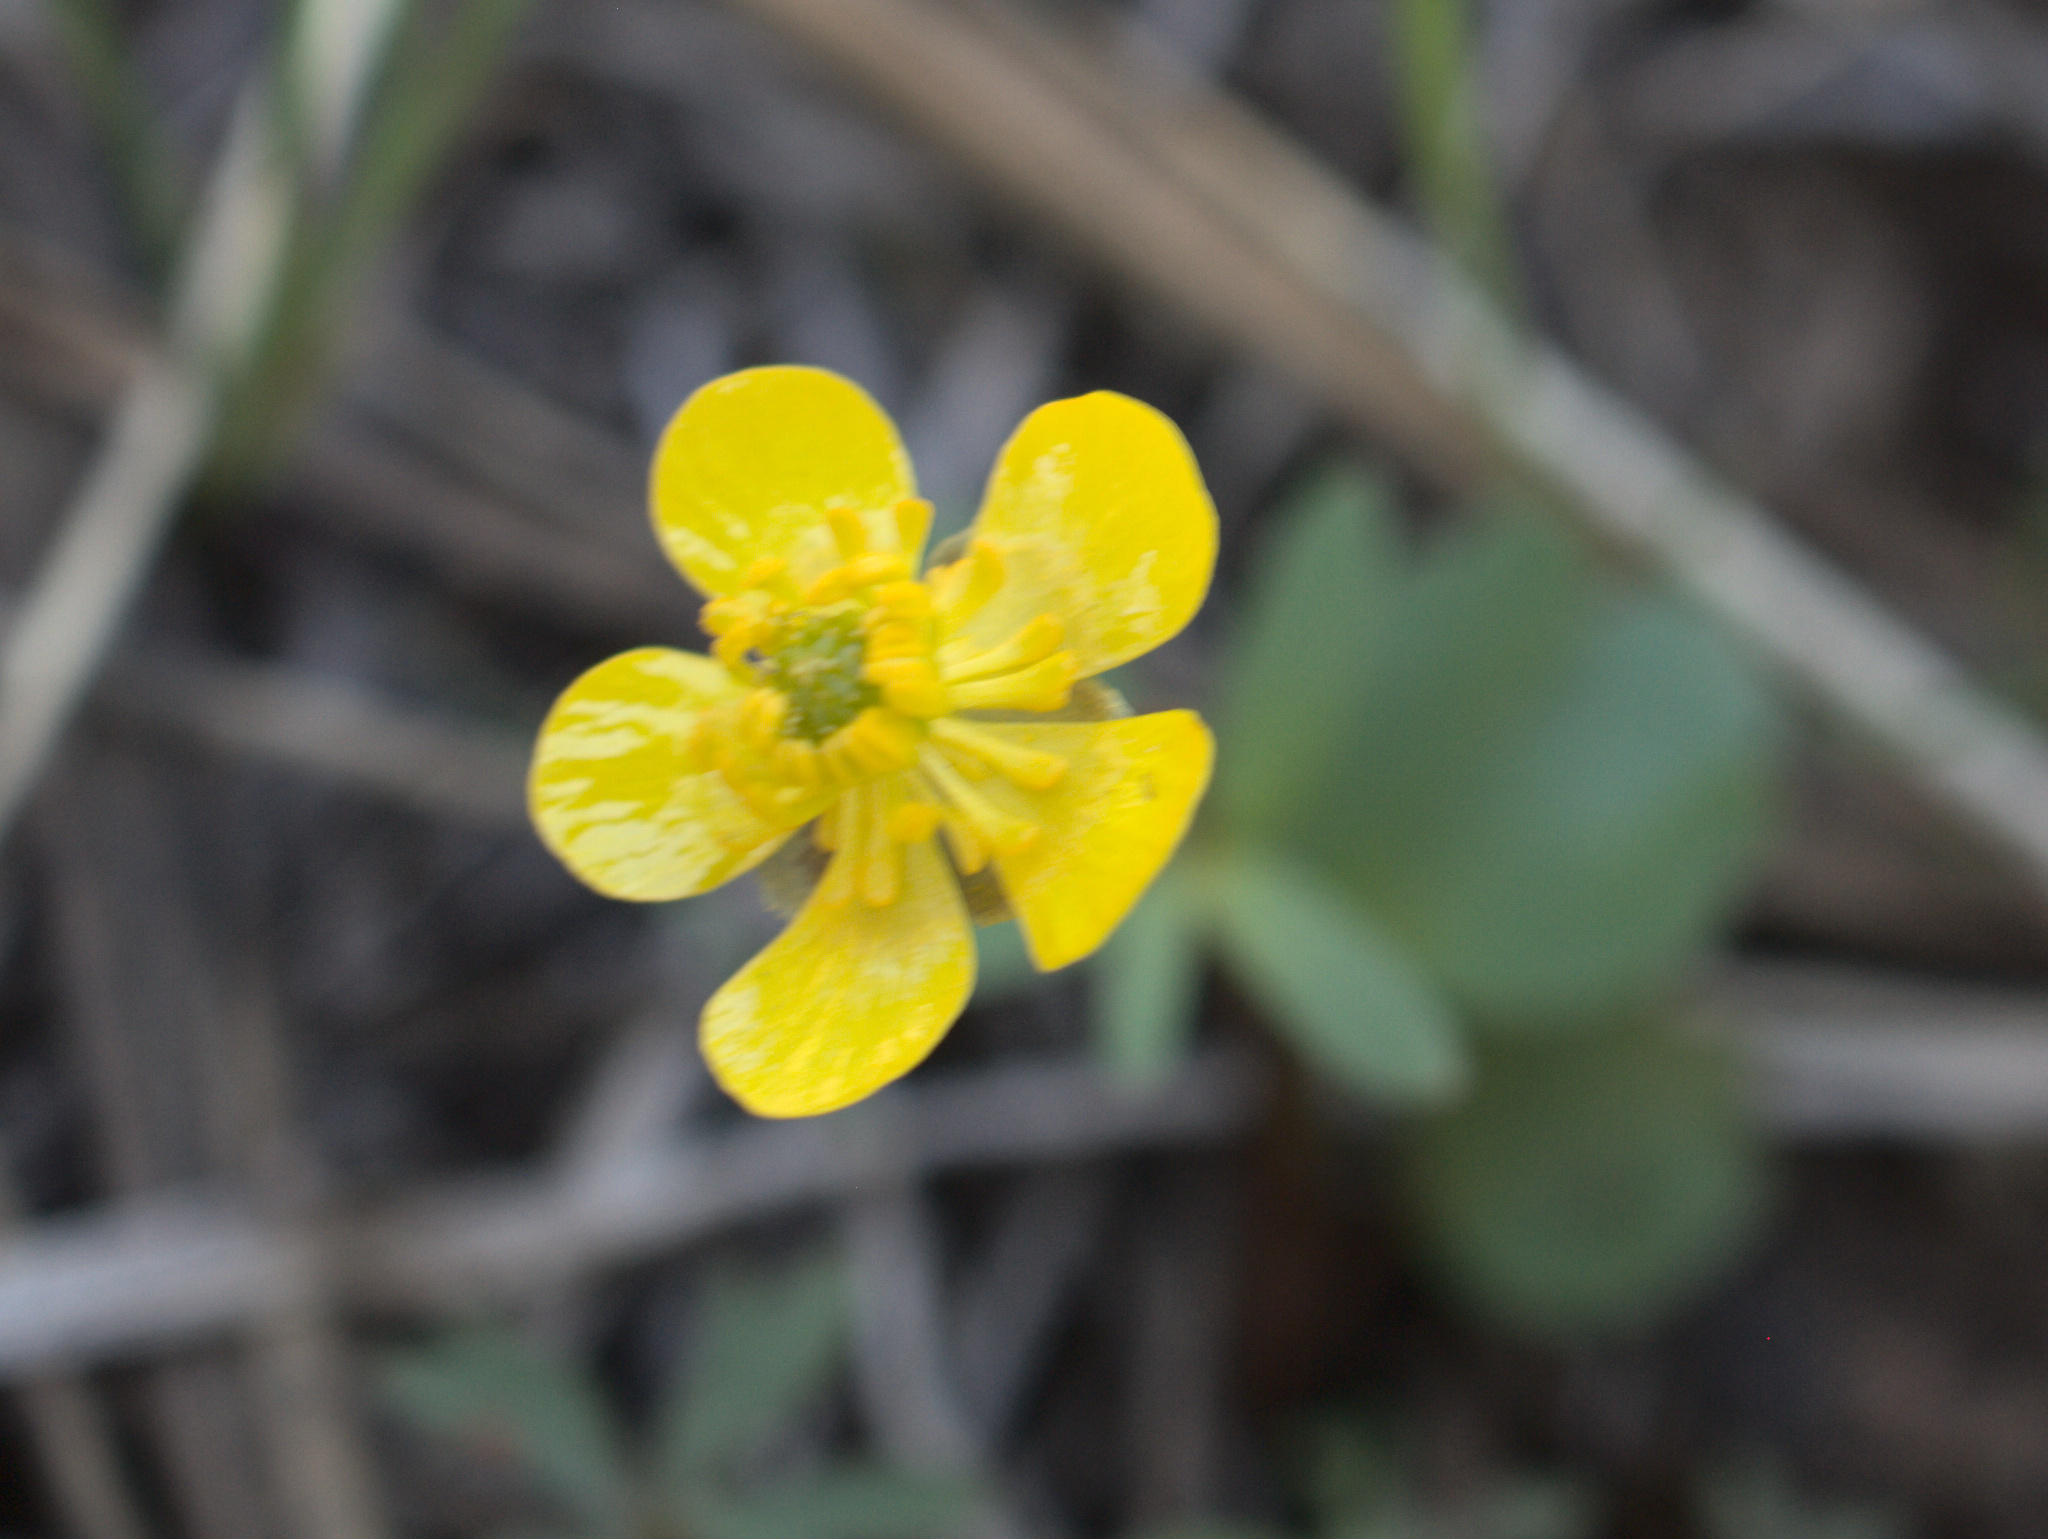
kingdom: Plantae
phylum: Tracheophyta
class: Magnoliopsida
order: Ranunculales
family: Ranunculaceae
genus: Ranunculus
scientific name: Ranunculus glaberrimus
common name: Sagebrush buttercup
